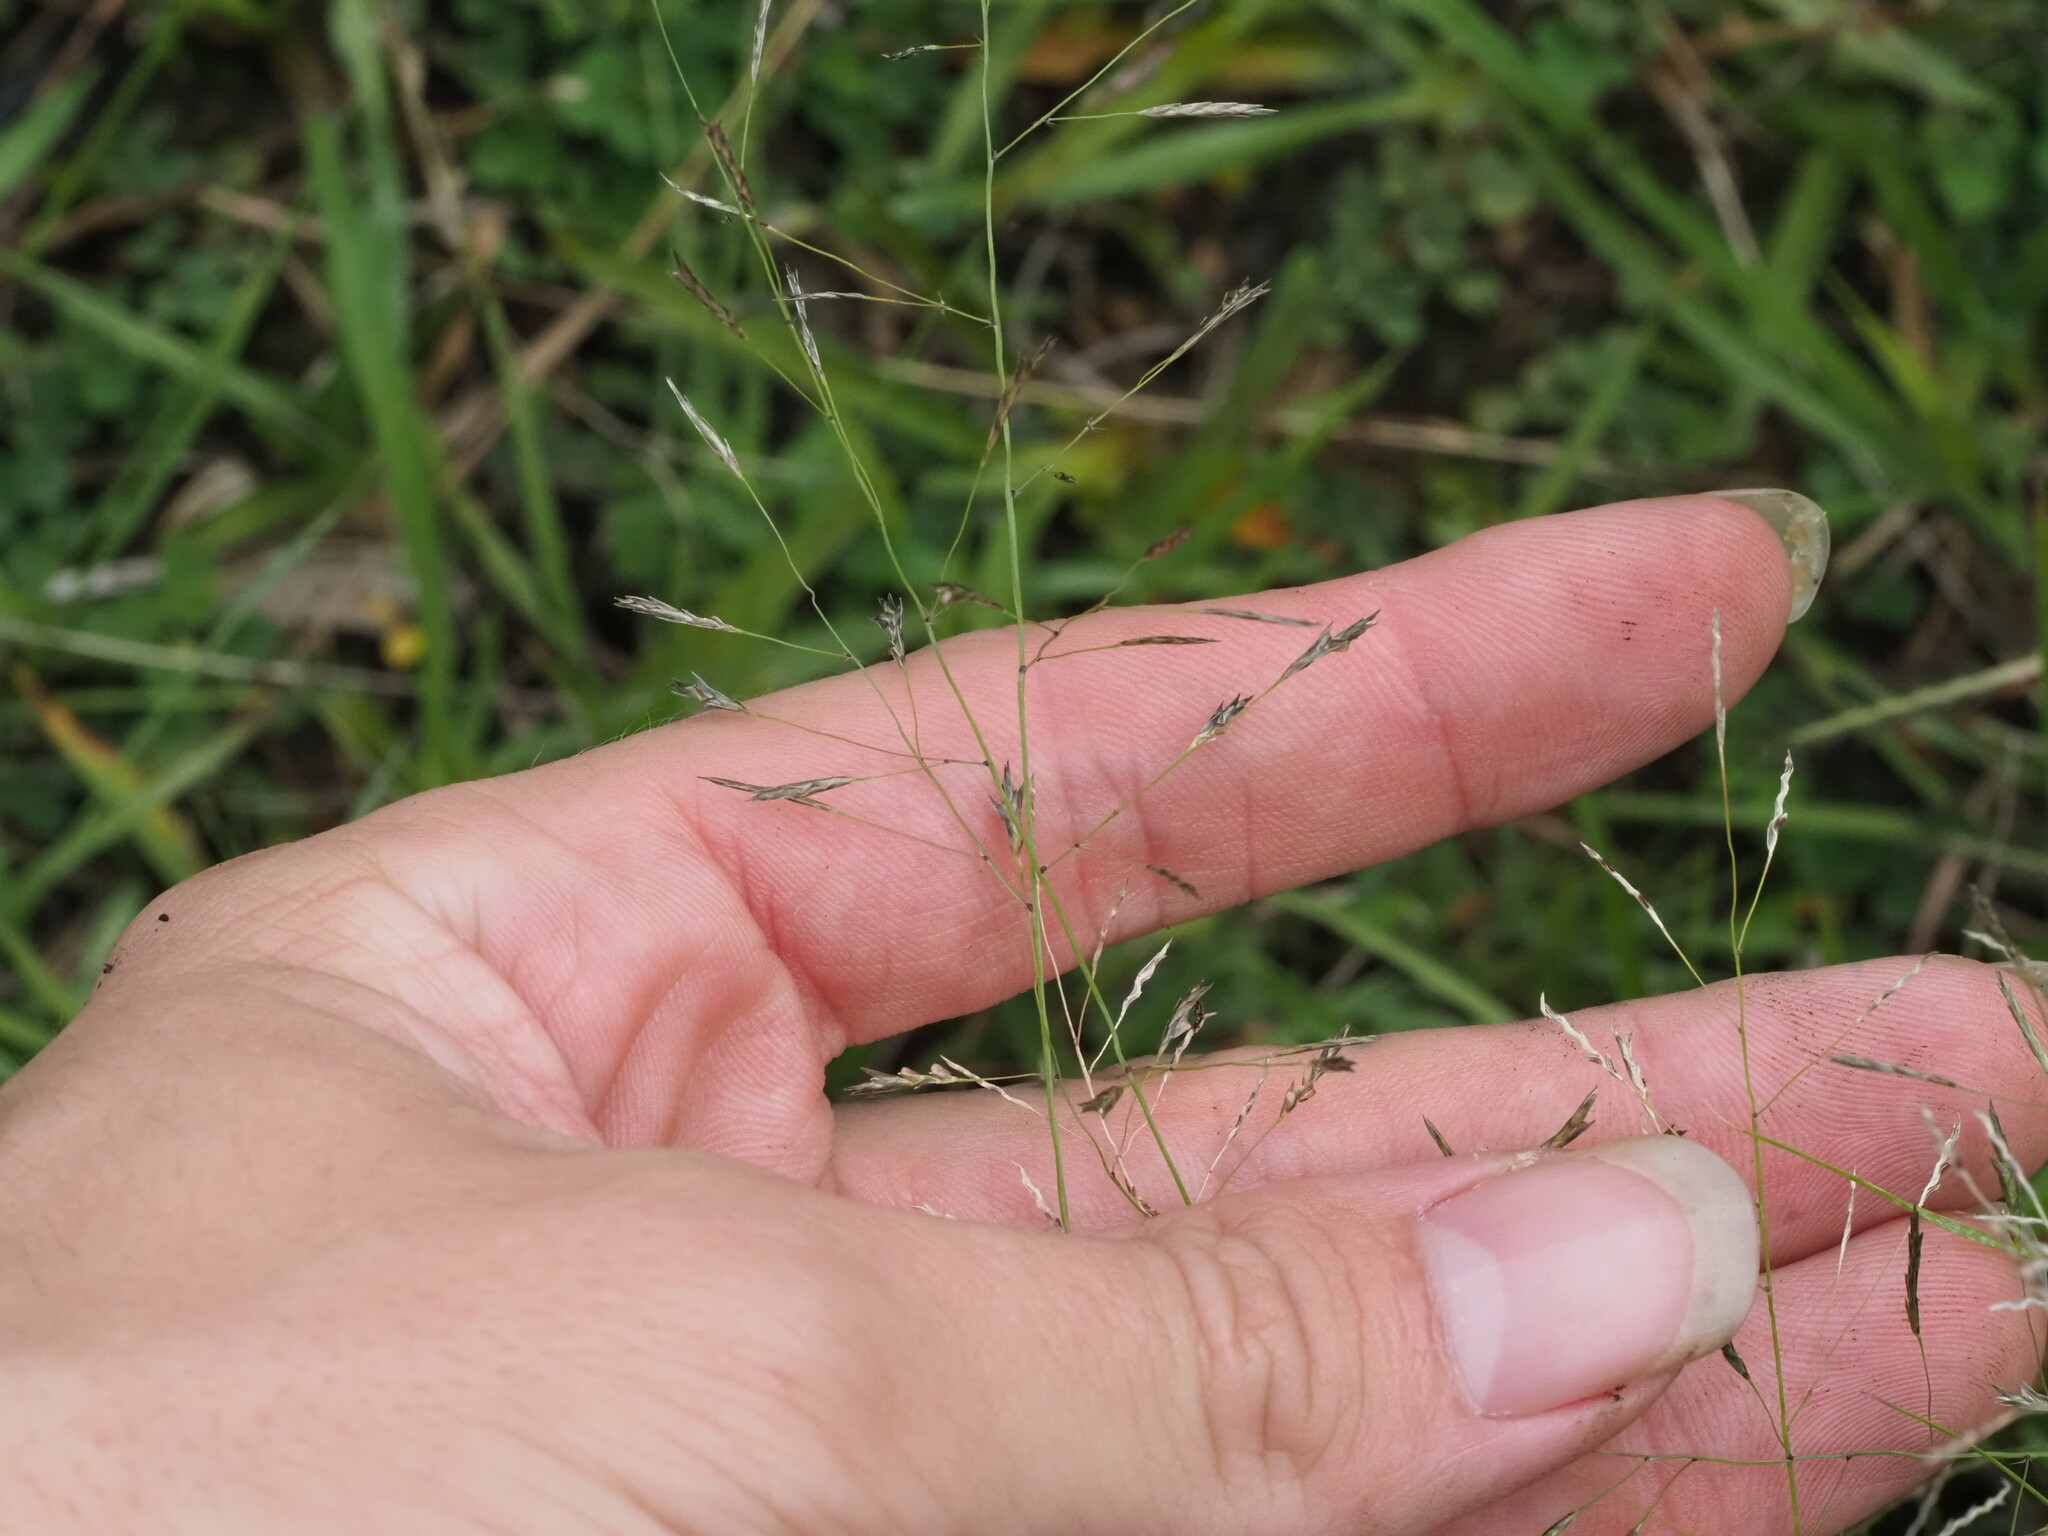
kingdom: Plantae
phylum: Tracheophyta
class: Liliopsida
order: Poales
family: Poaceae
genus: Eragrostis
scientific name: Eragrostis tenuifolia
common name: Elastic grass
